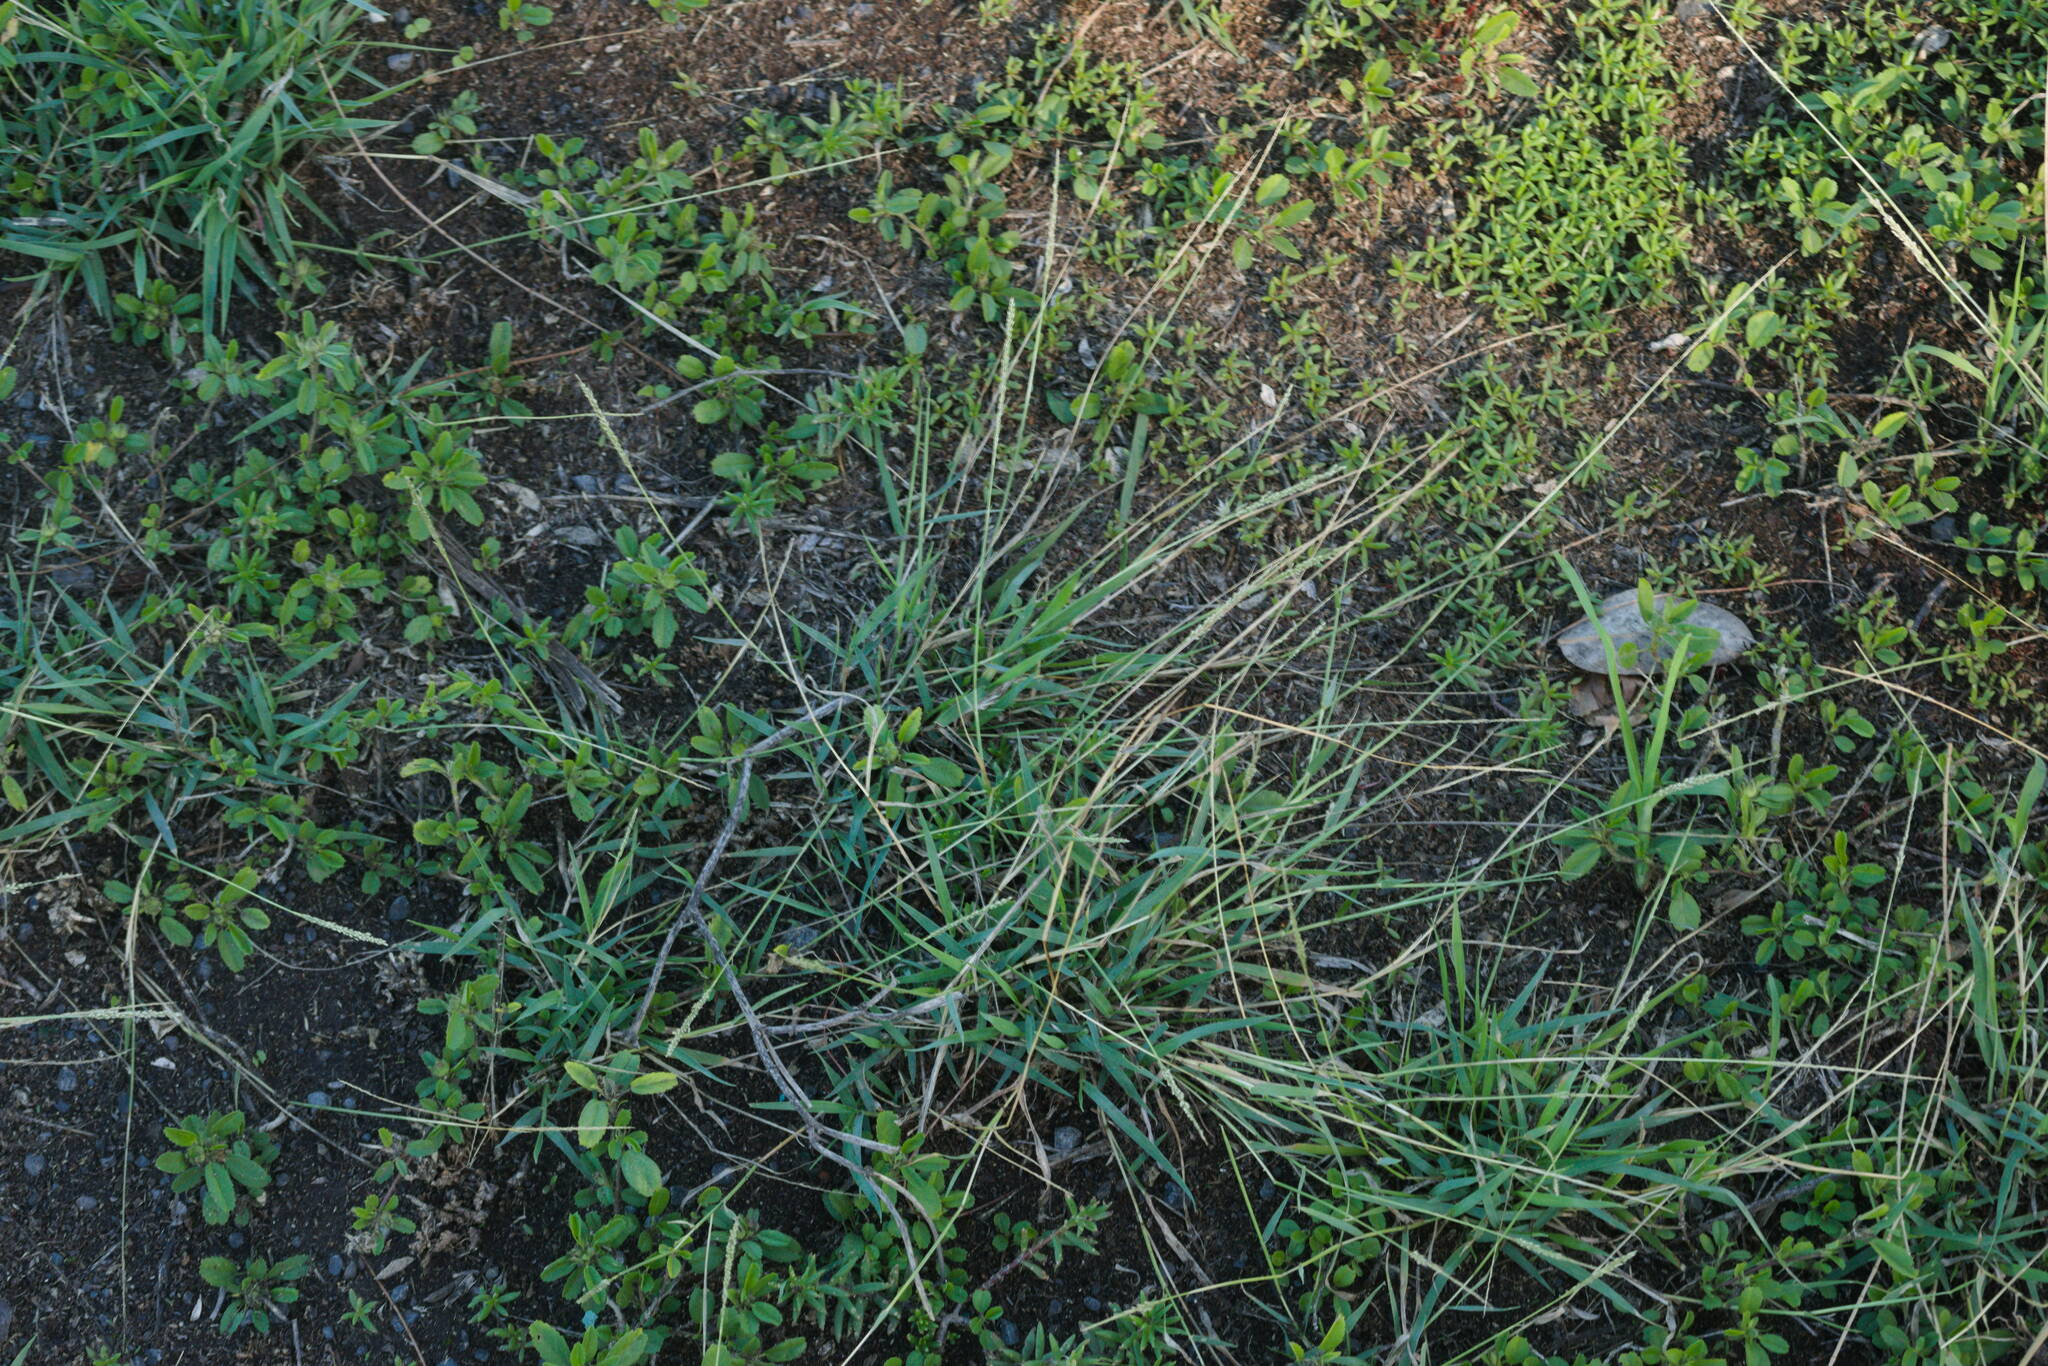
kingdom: Plantae
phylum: Tracheophyta
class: Liliopsida
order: Poales
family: Poaceae
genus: Sporobolus
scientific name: Sporobolus pyramidatus
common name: Whorled dropseed
